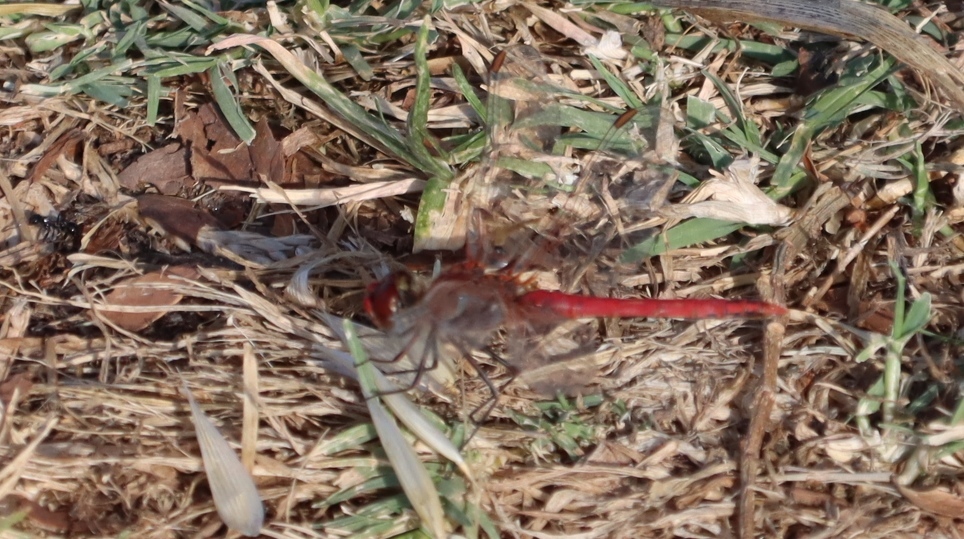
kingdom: Animalia
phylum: Arthropoda
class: Insecta
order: Odonata
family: Libellulidae
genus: Sympetrum
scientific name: Sympetrum fonscolombii
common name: Red-veined darter
